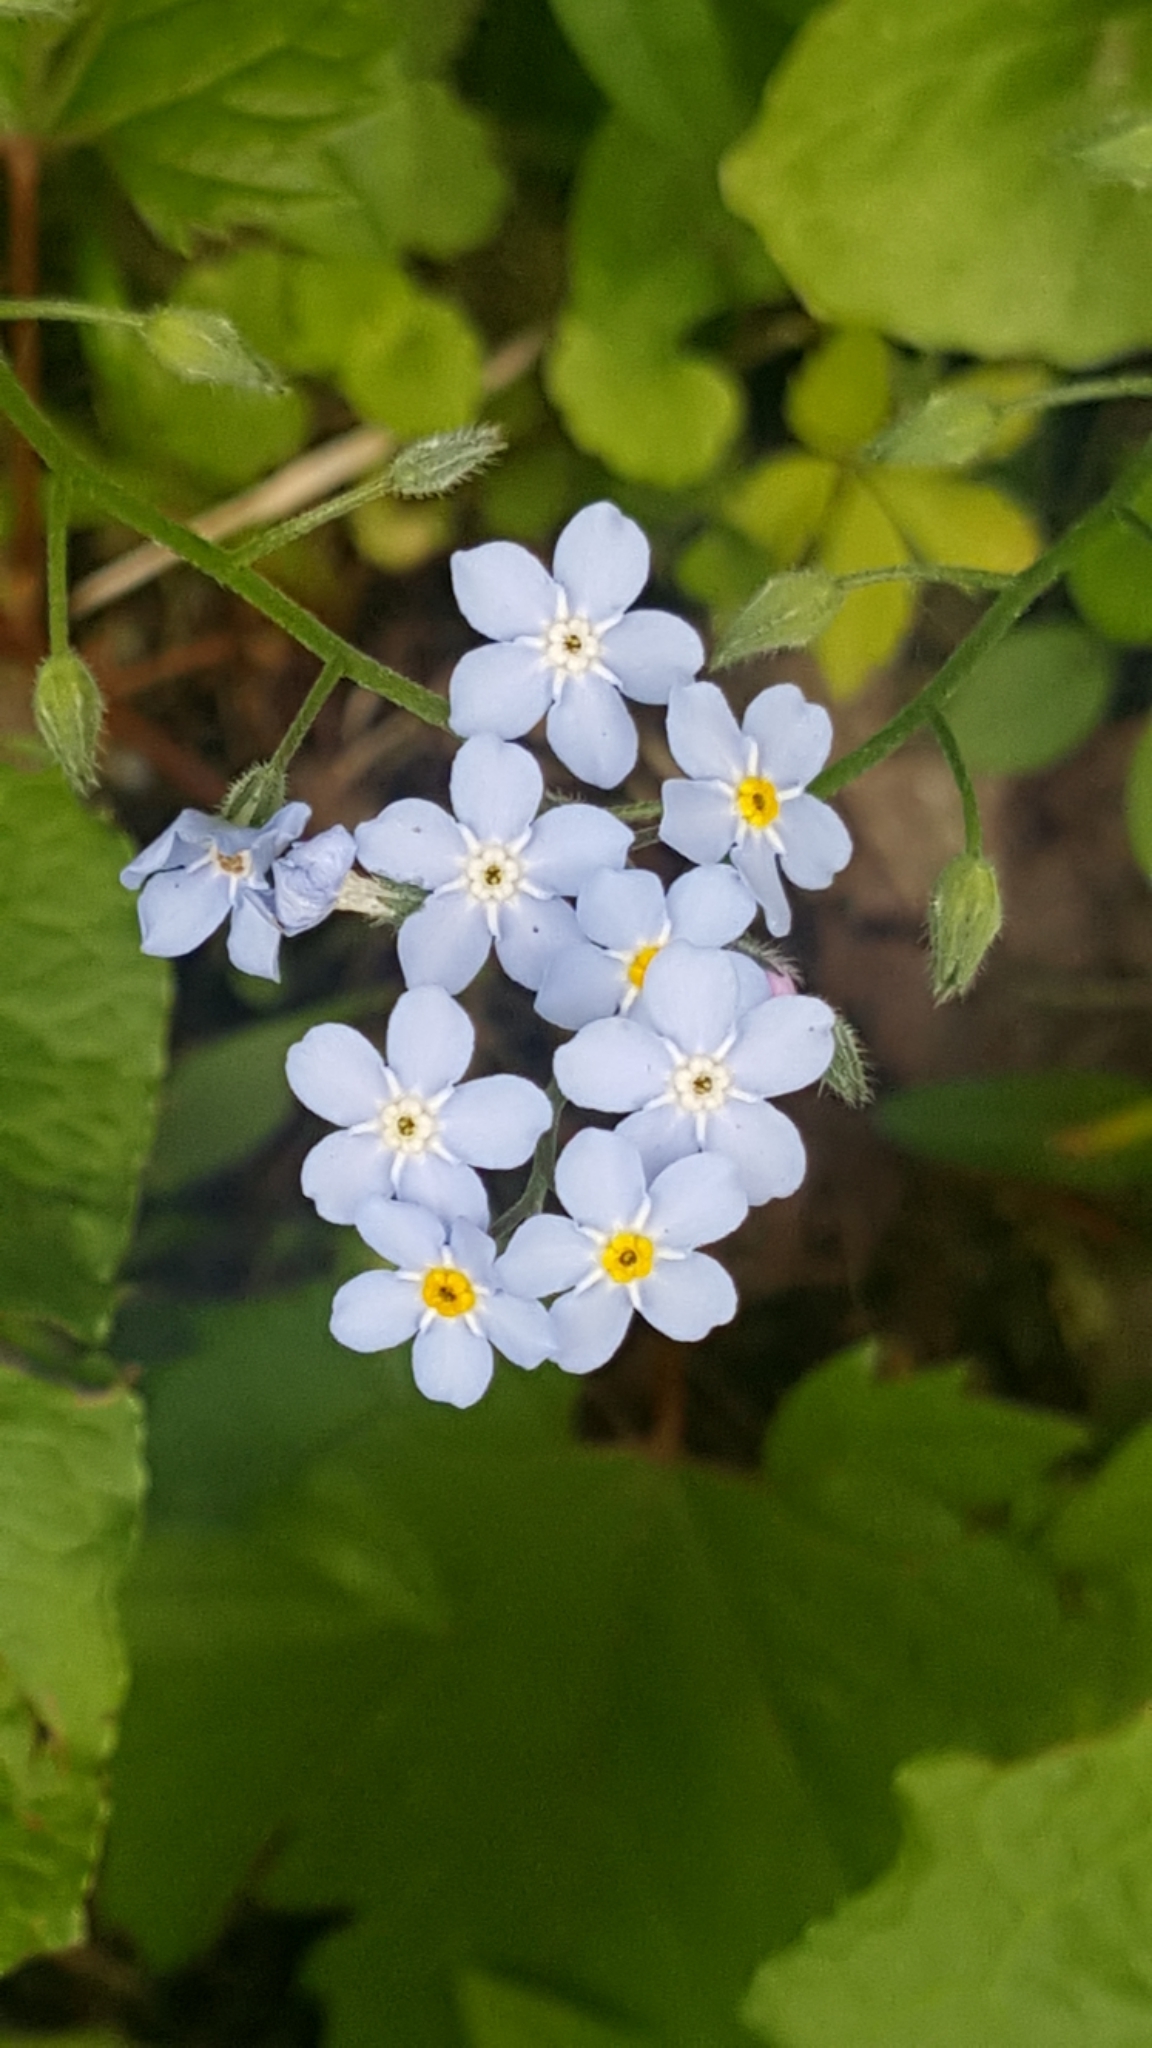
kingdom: Plantae
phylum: Tracheophyta
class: Magnoliopsida
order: Boraginales
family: Boraginaceae
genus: Myosotis
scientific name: Myosotis sylvatica
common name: Wood forget-me-not
